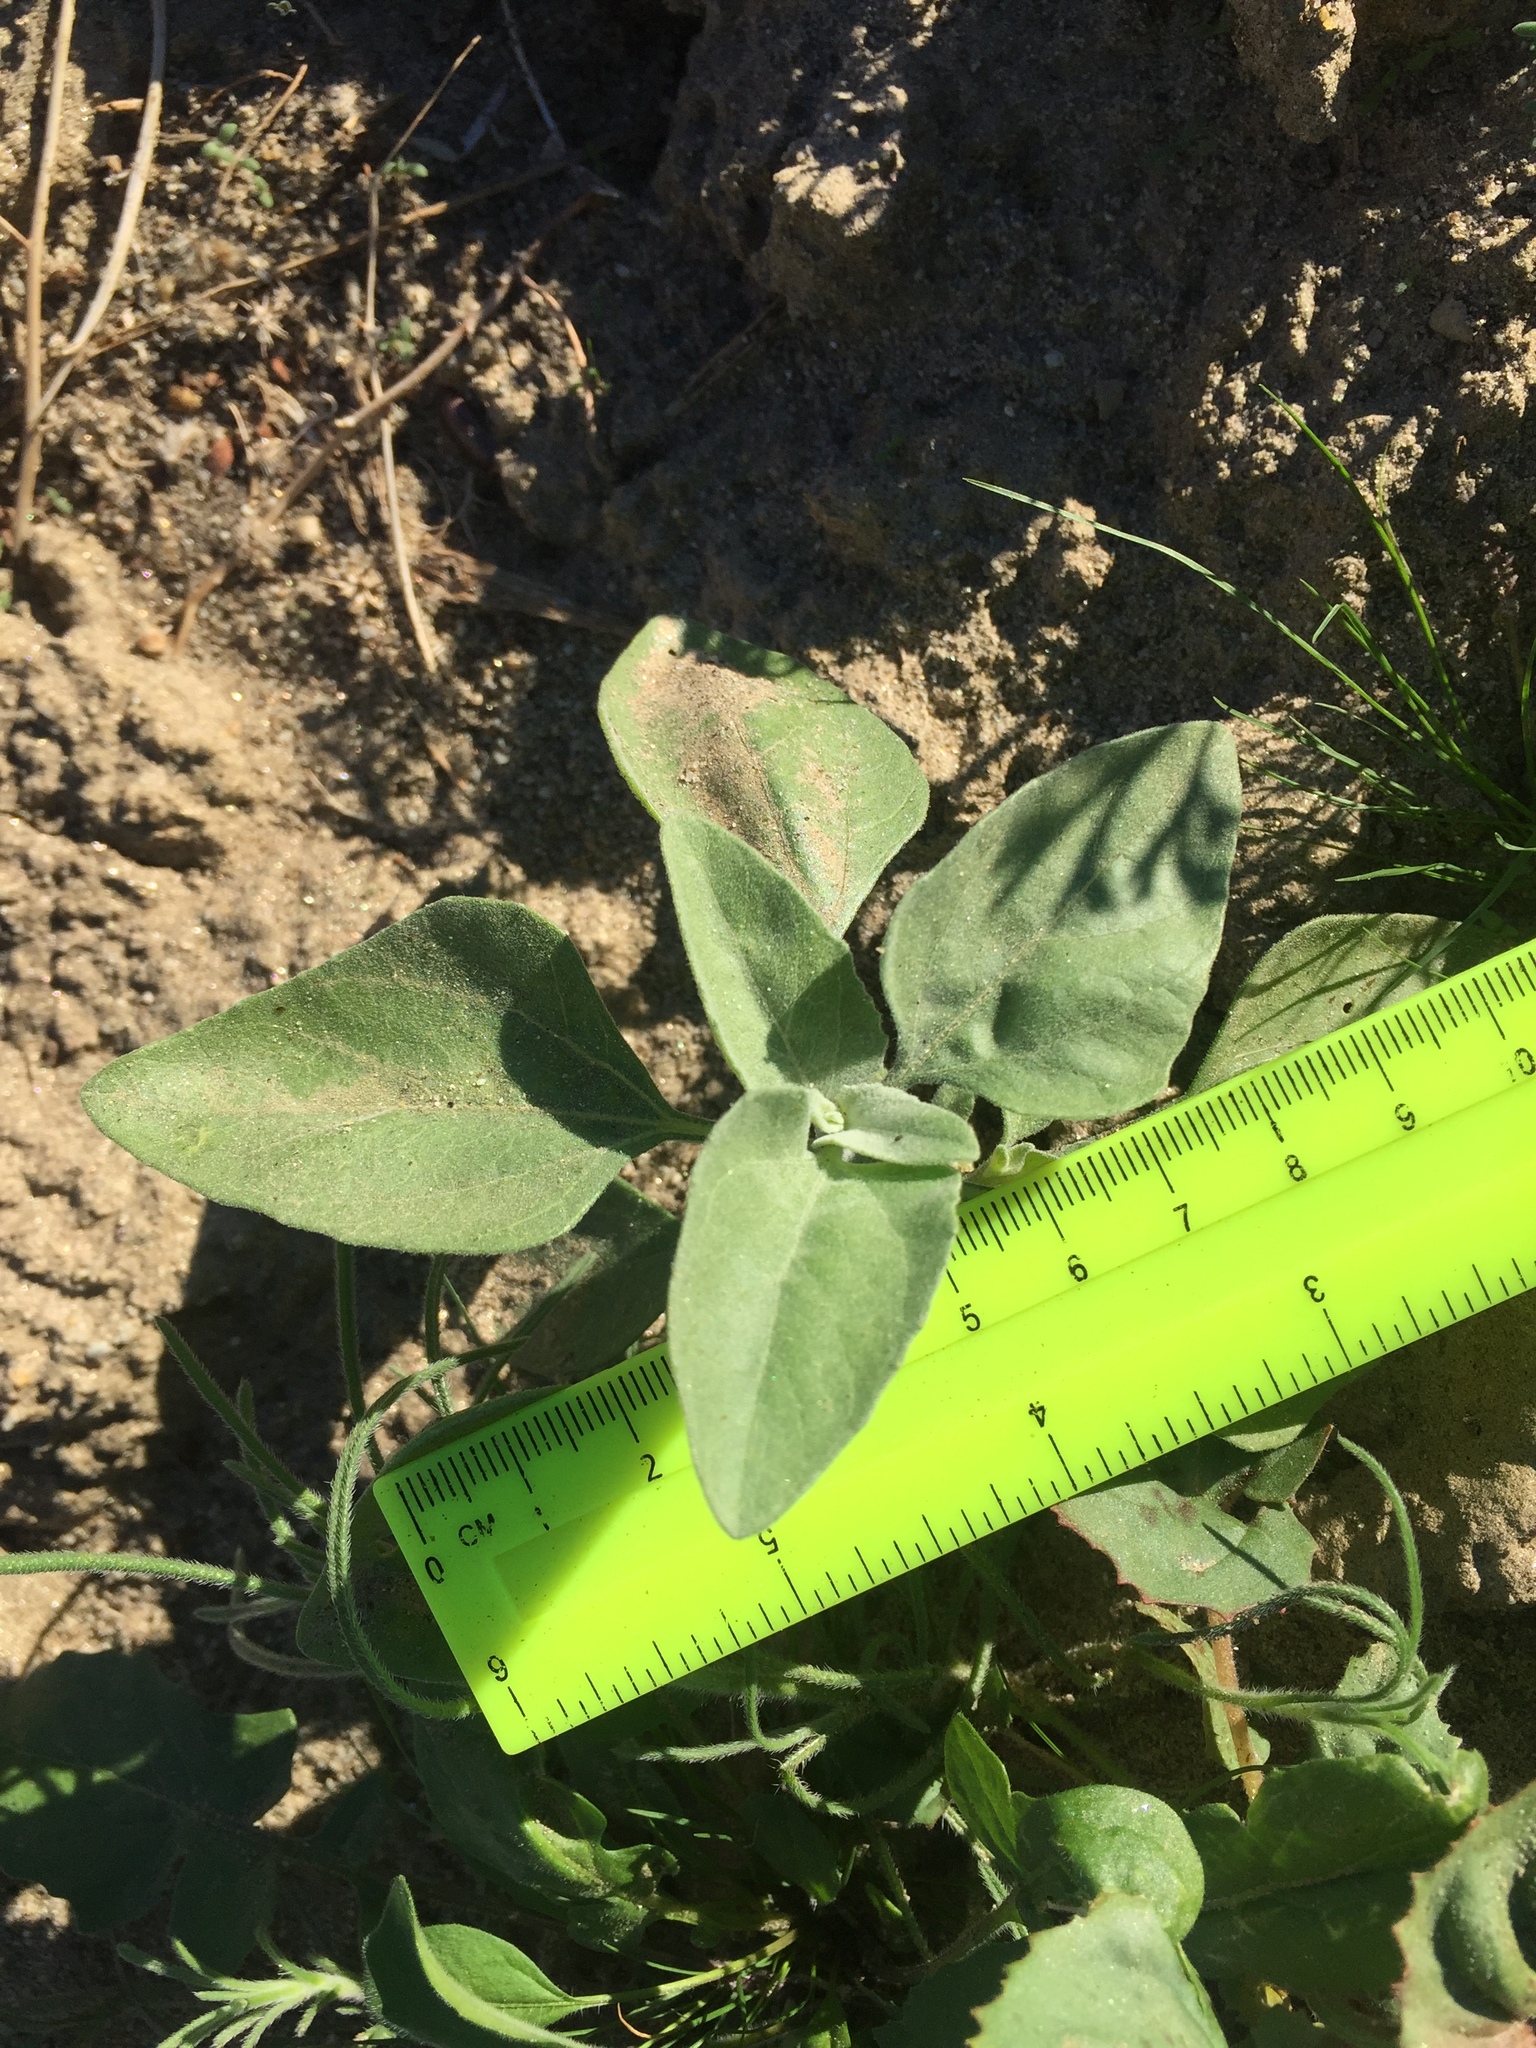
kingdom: Plantae
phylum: Tracheophyta
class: Magnoliopsida
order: Asterales
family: Asteraceae
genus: Encelia
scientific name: Encelia farinosa
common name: Brittlebush
